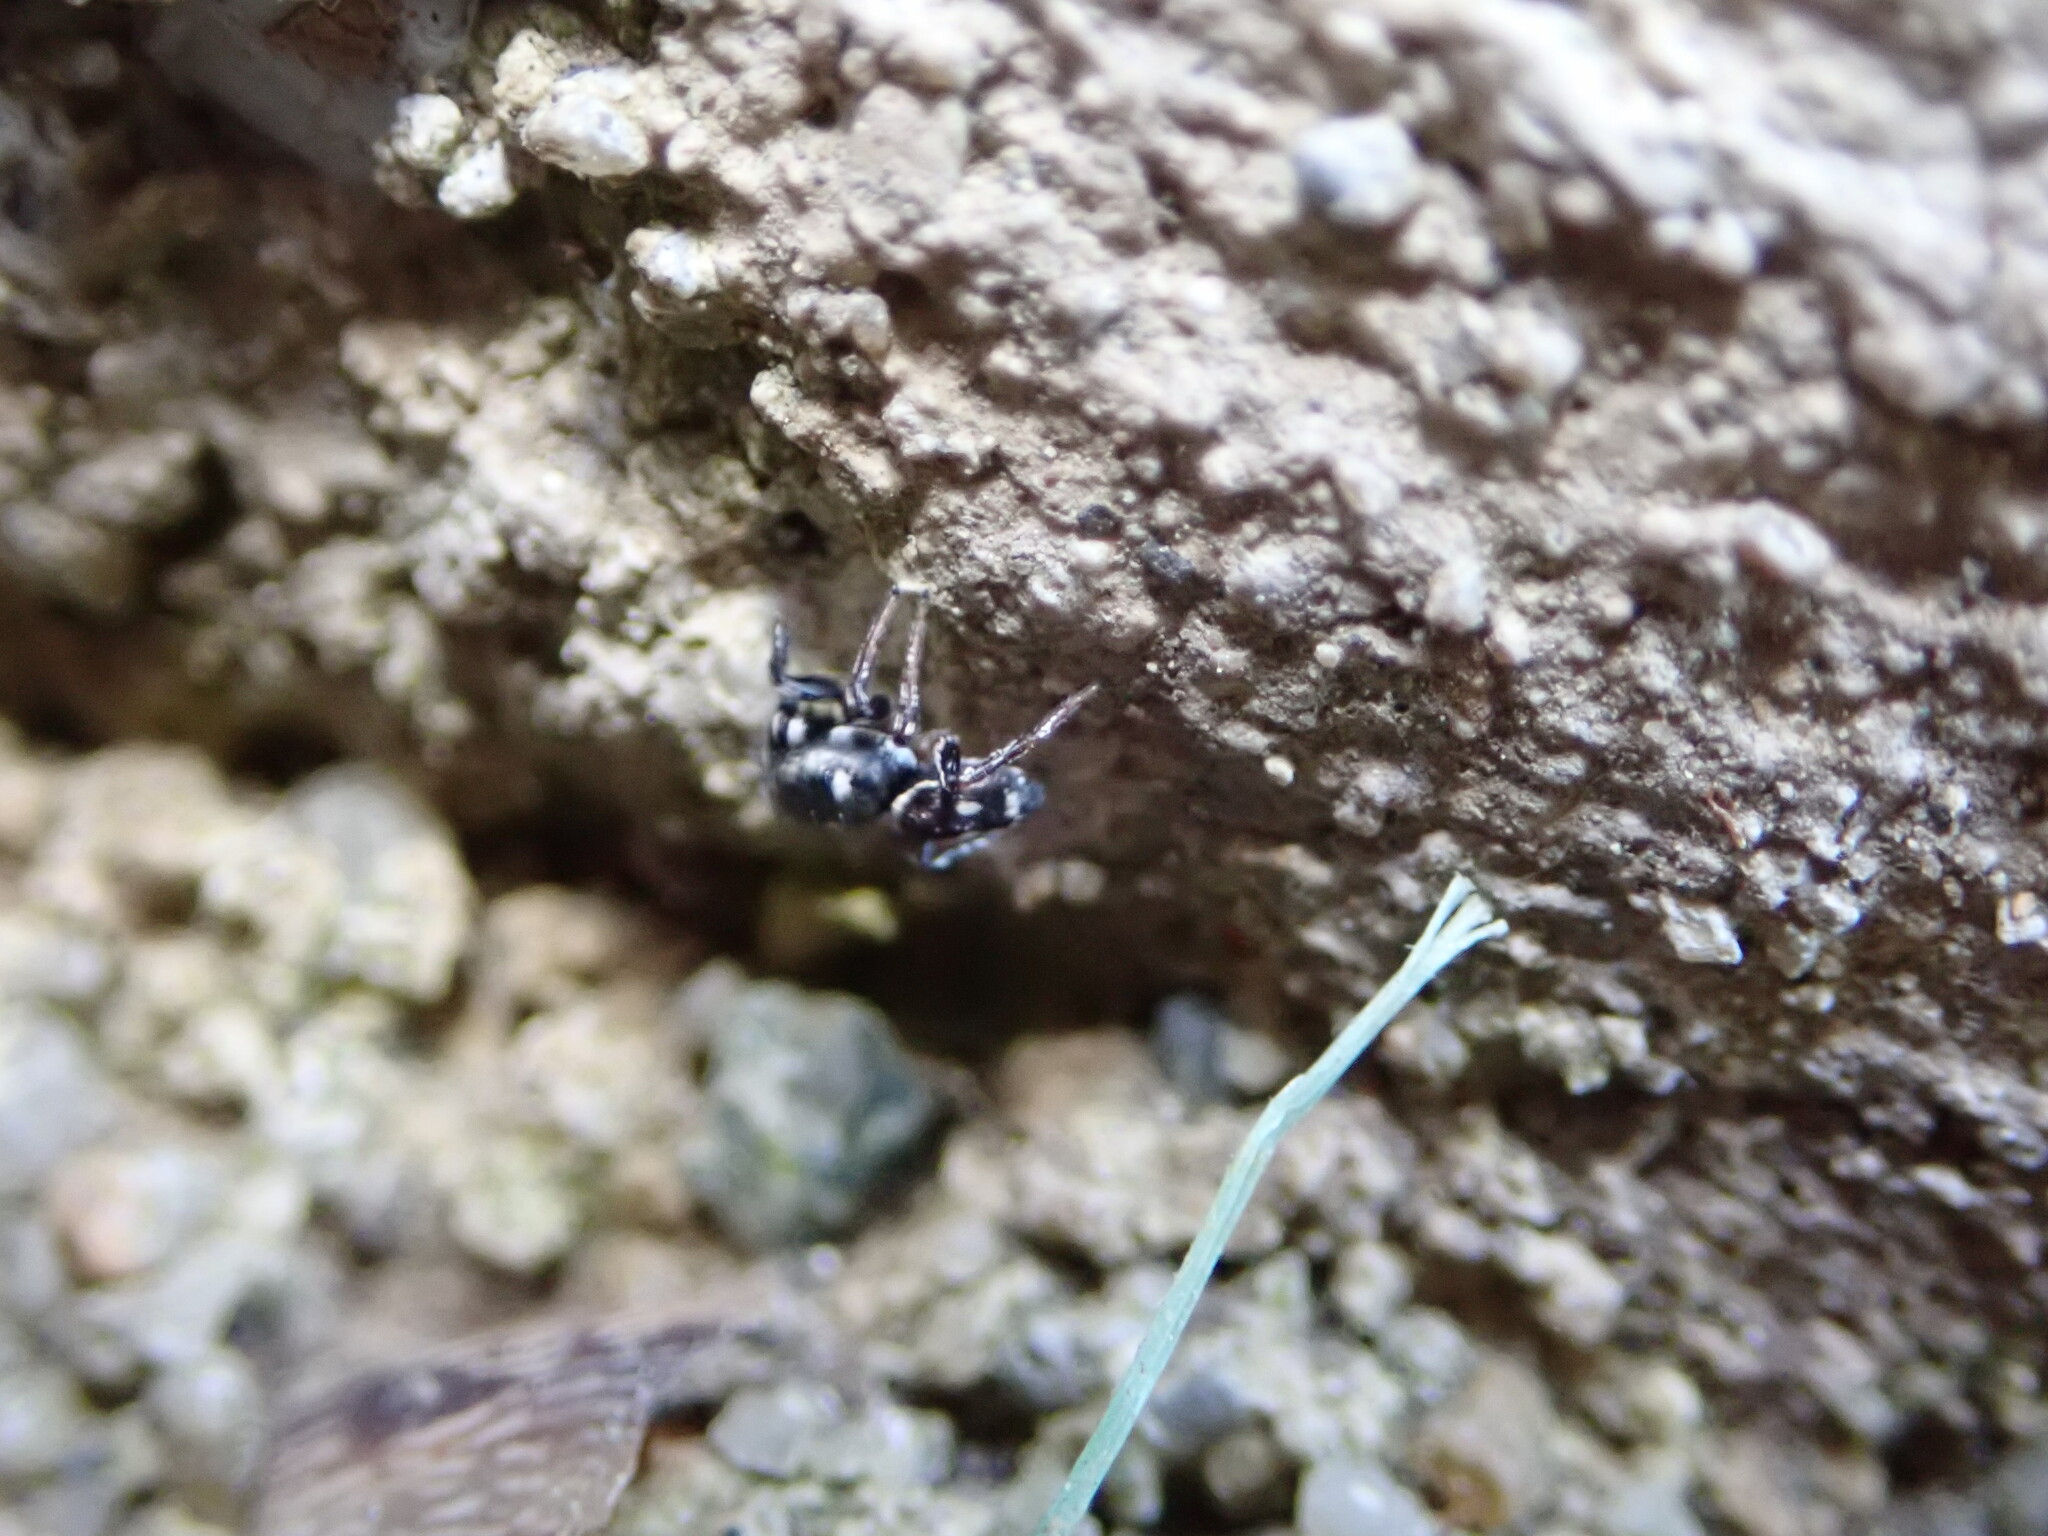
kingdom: Animalia
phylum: Arthropoda
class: Arachnida
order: Araneae
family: Salticidae
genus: Heliophanus
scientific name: Heliophanus apiatus
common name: Sun jumping spider
